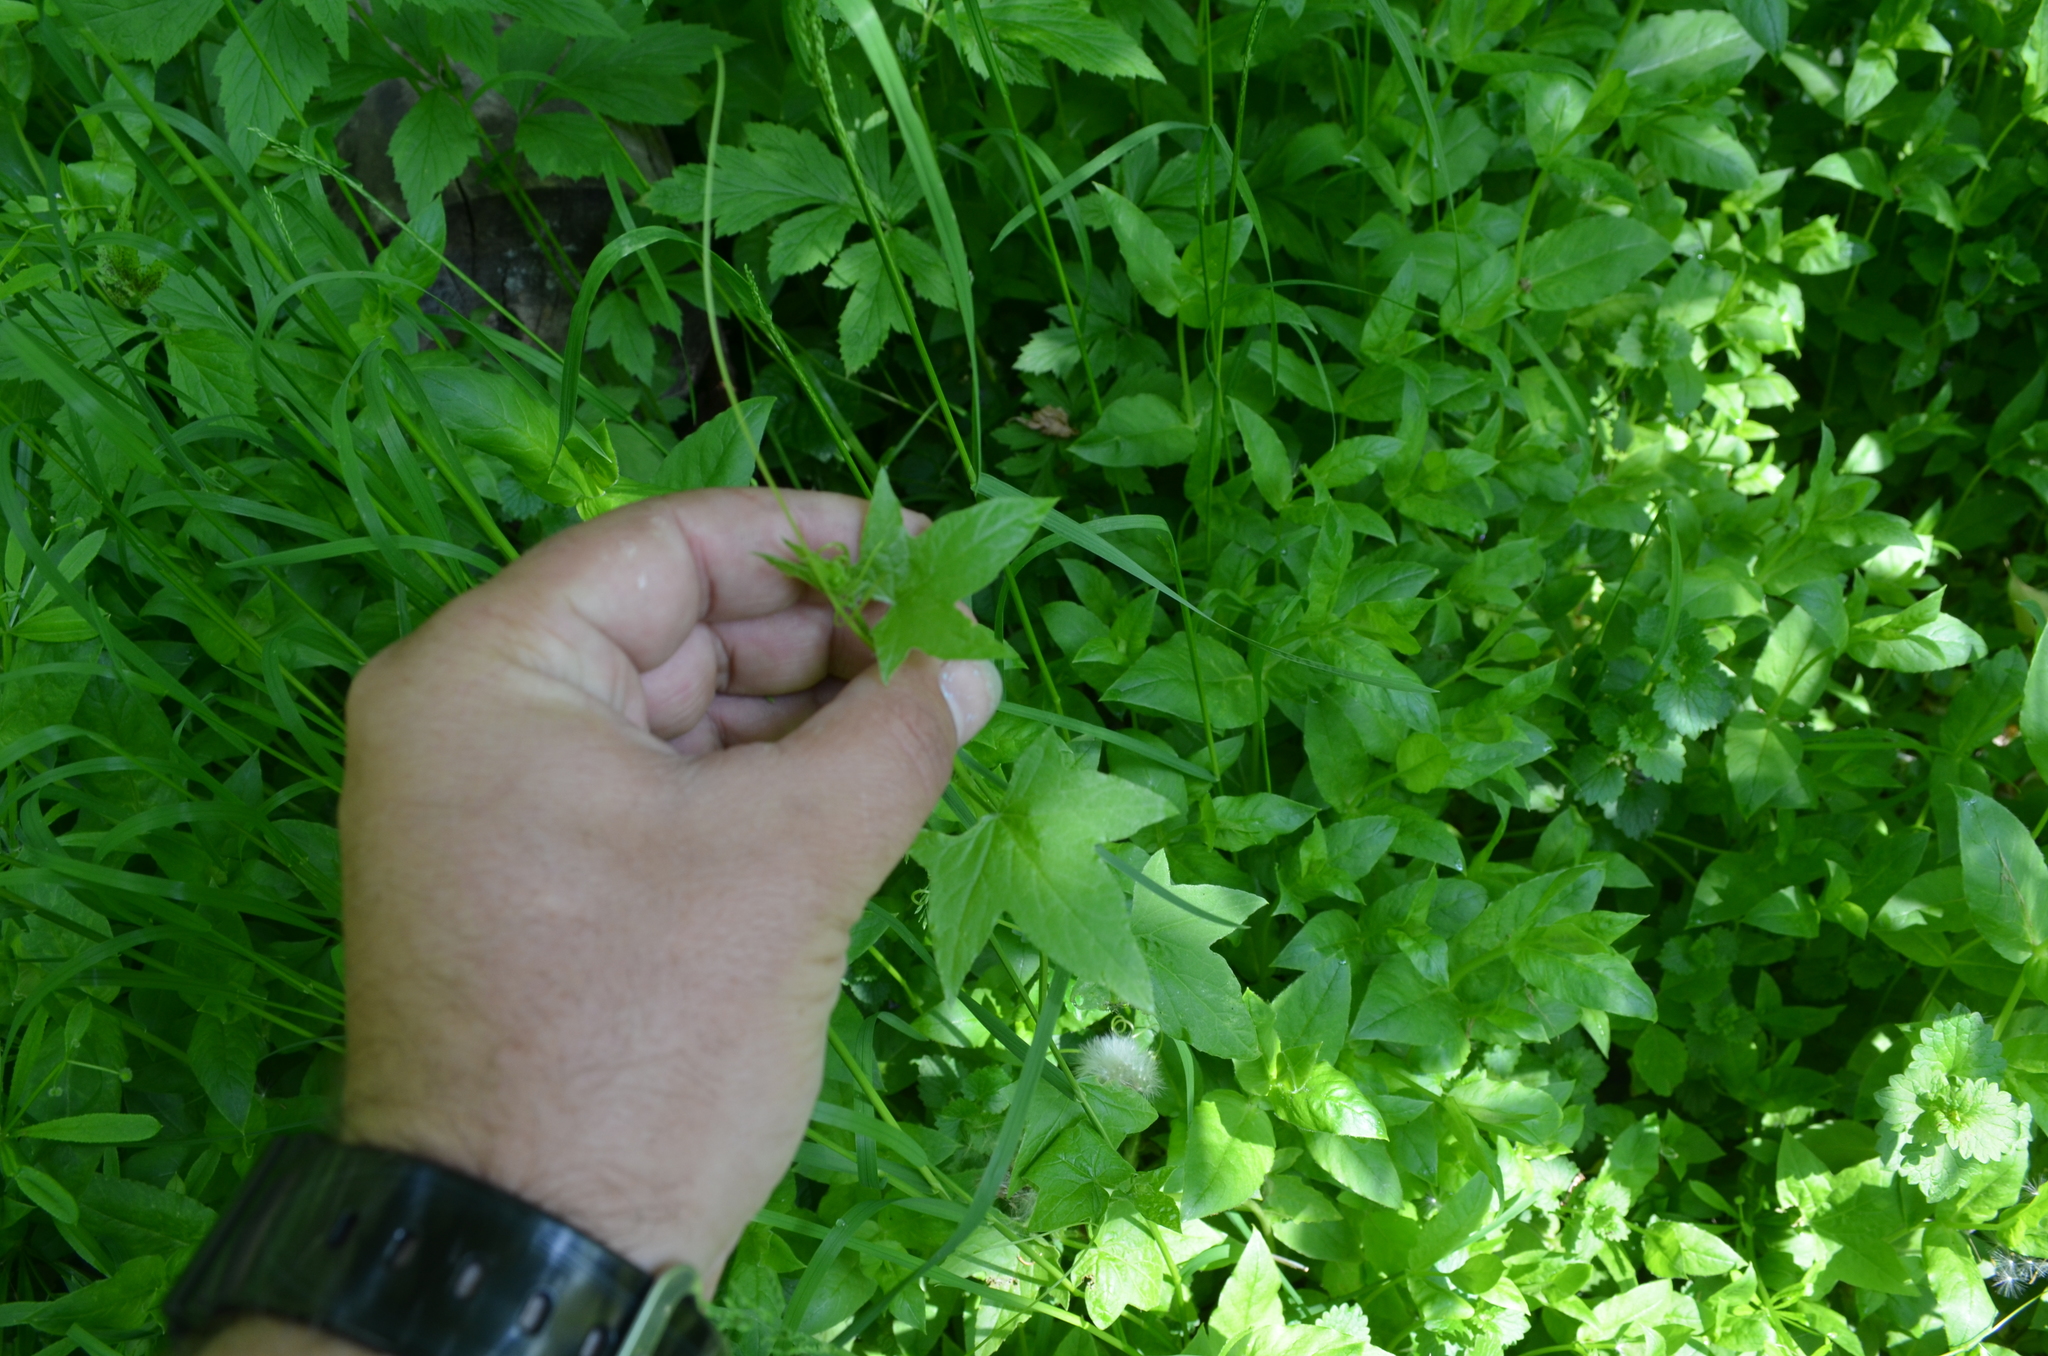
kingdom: Plantae
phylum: Tracheophyta
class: Magnoliopsida
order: Cucurbitales
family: Cucurbitaceae
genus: Echinocystis
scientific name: Echinocystis lobata
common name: Wild cucumber
